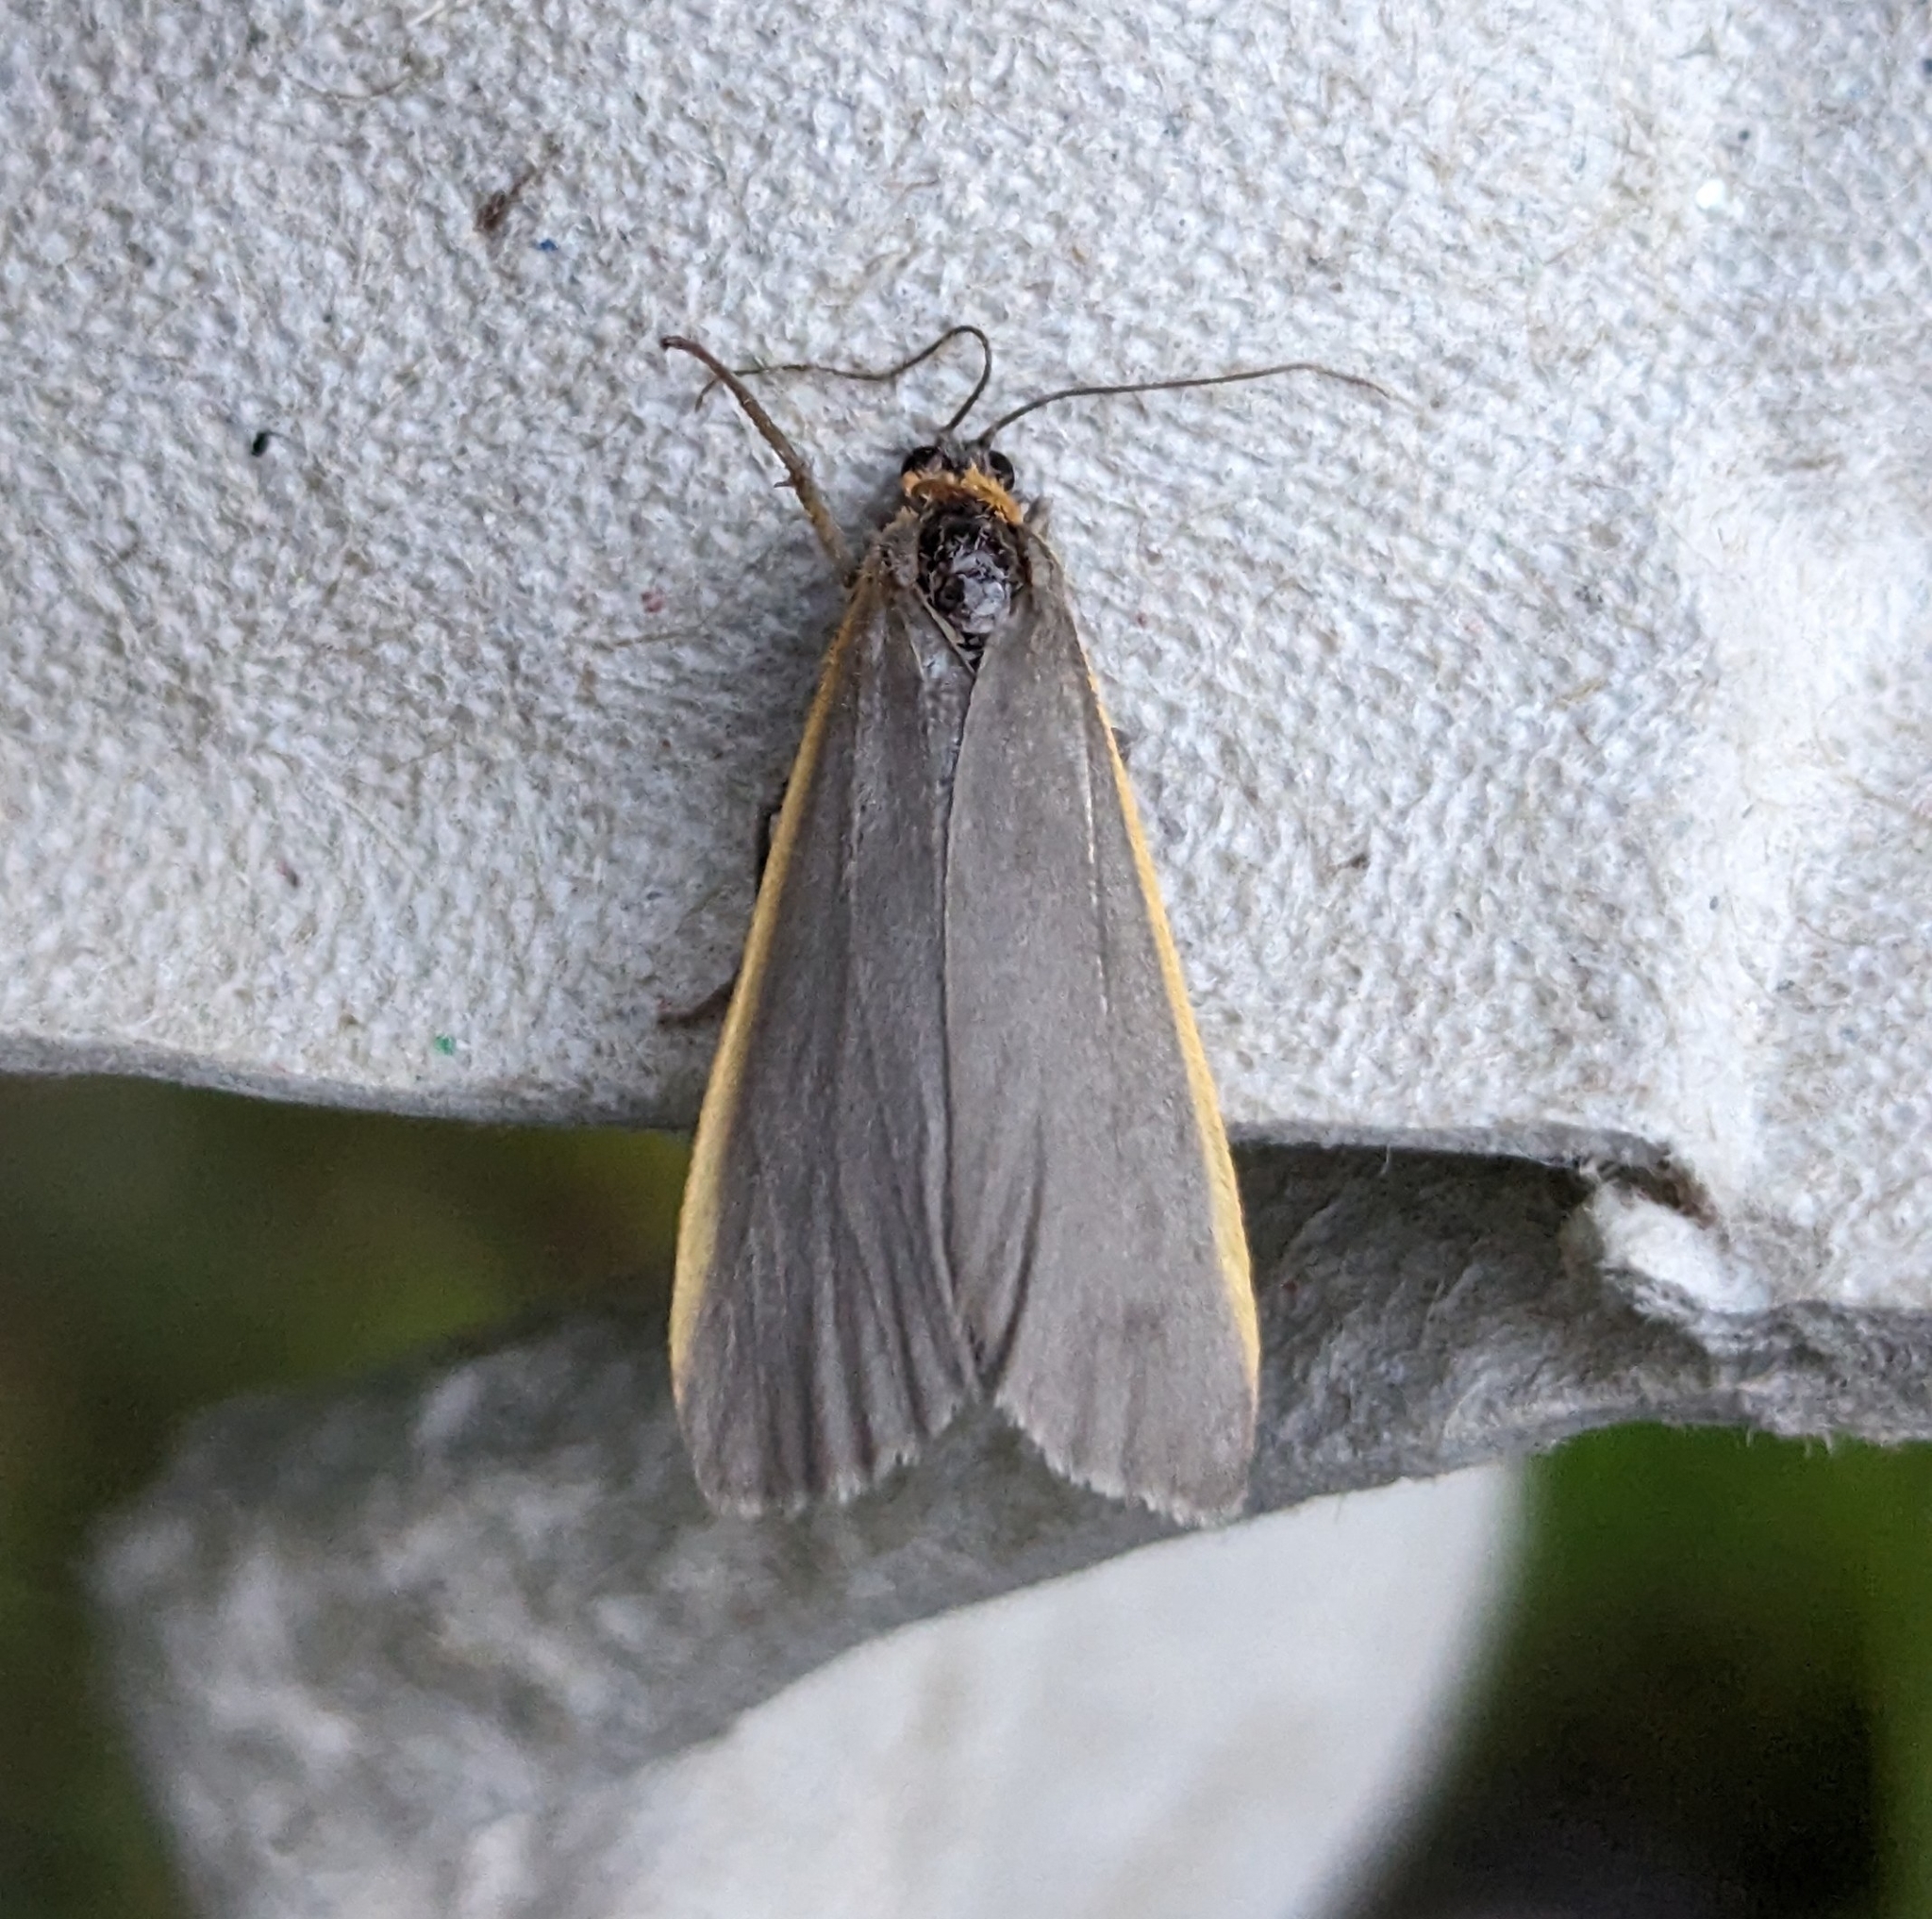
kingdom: Animalia
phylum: Arthropoda
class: Insecta
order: Lepidoptera
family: Erebidae
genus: Manulea
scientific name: Manulea bicolor
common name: Bicolored moth
